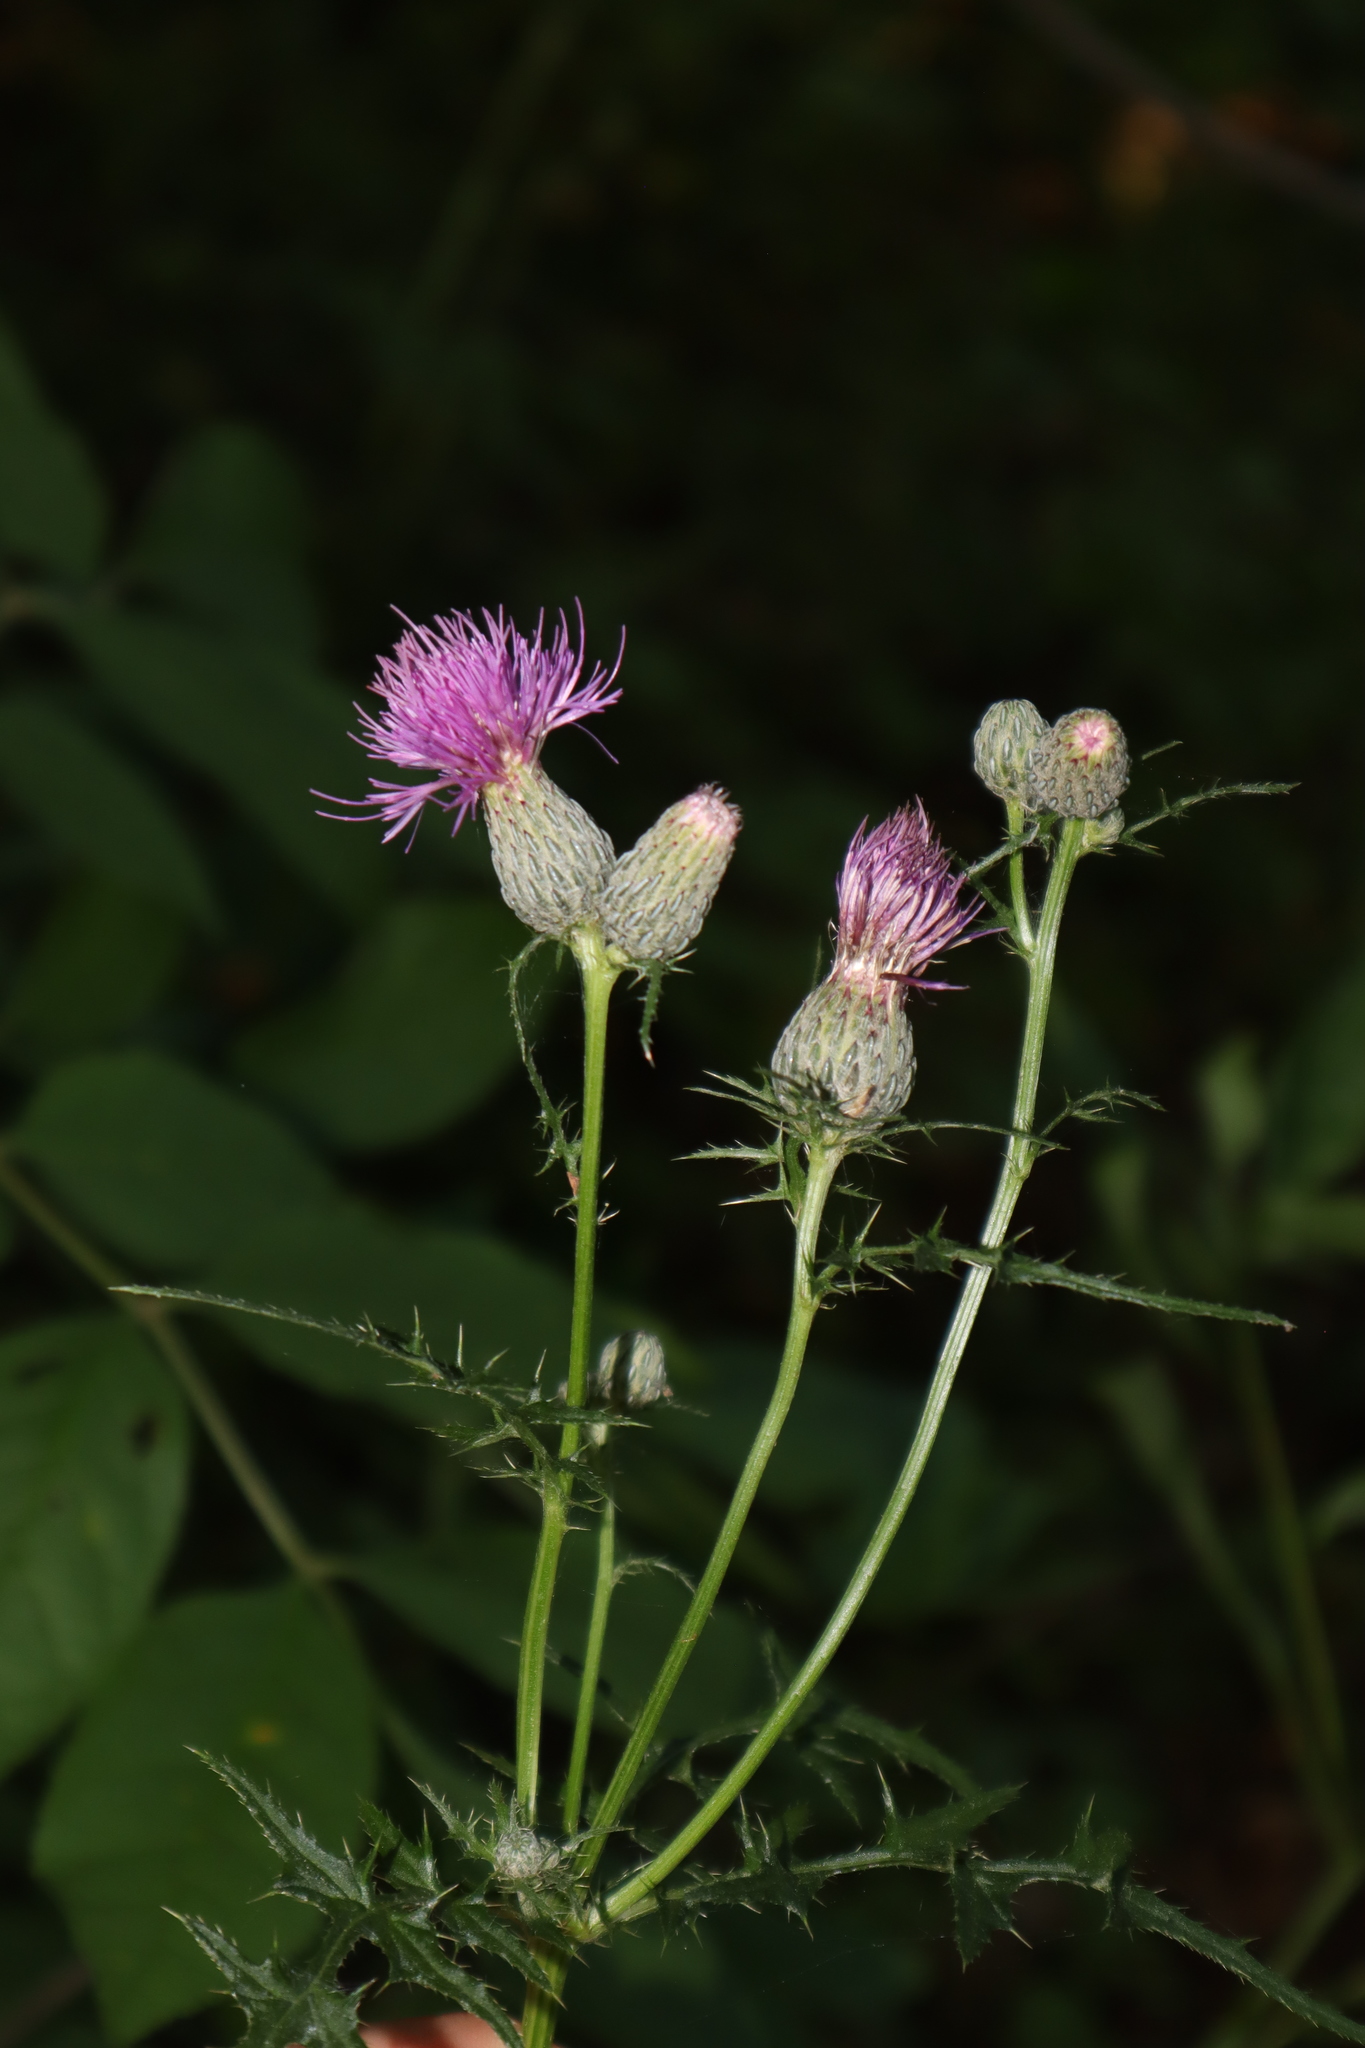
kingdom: Plantae
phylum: Tracheophyta
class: Magnoliopsida
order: Asterales
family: Asteraceae
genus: Cirsium
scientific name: Cirsium muticum
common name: Dunce-nettle
